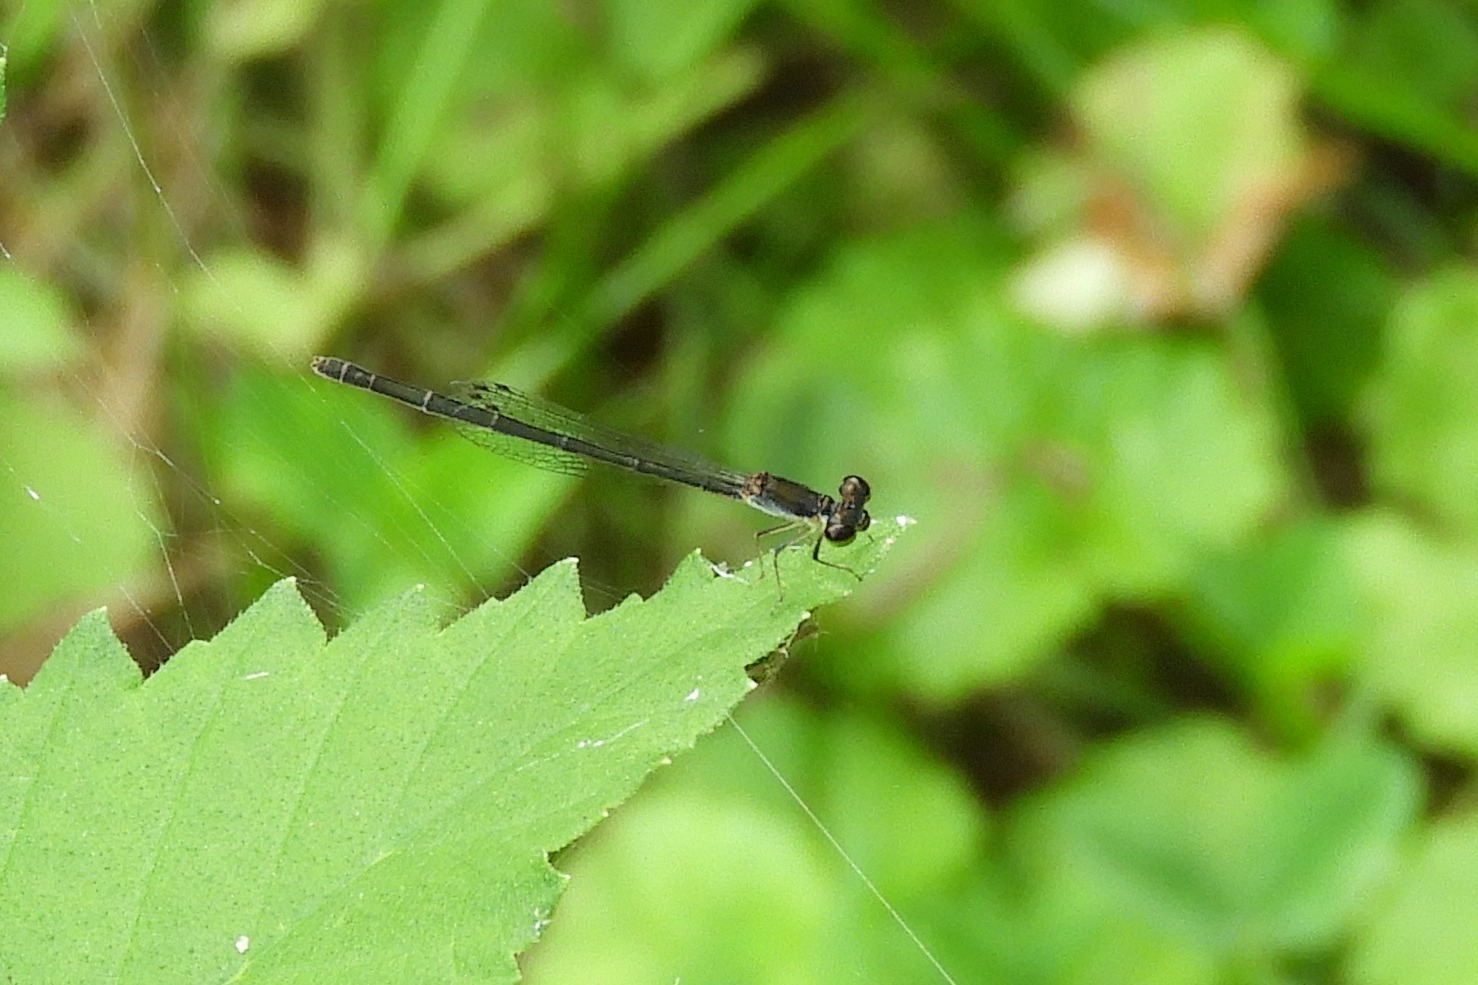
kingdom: Animalia
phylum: Arthropoda
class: Insecta
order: Odonata
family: Coenagrionidae
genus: Ischnura
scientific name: Ischnura posita
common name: Fragile forktail
